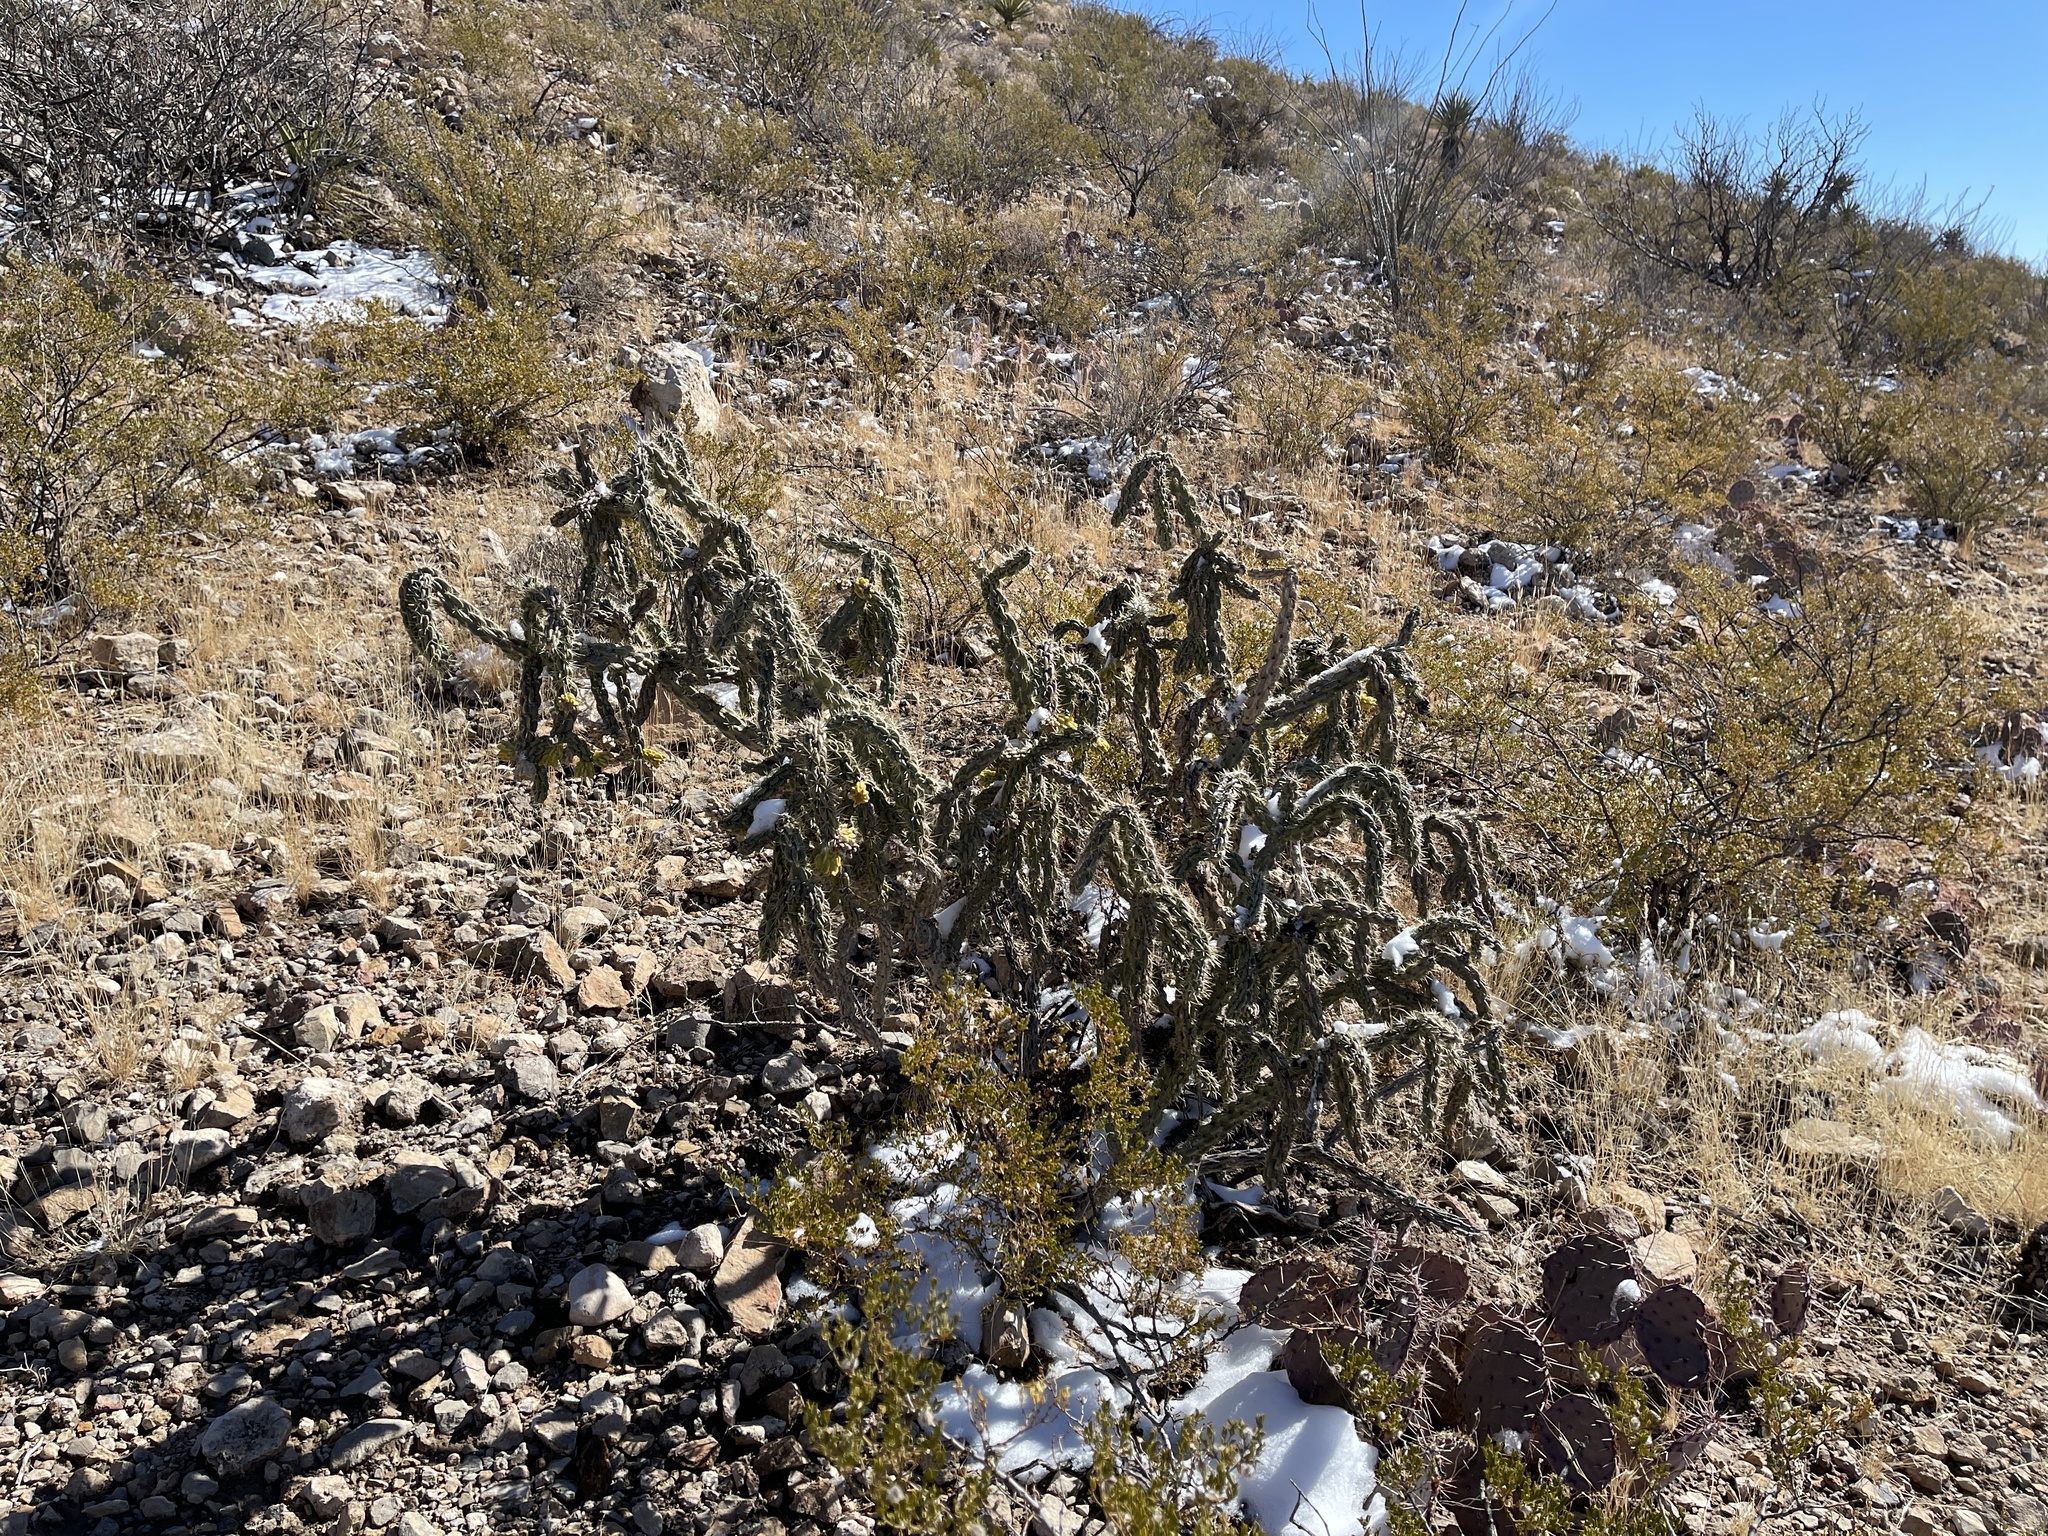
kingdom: Plantae
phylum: Tracheophyta
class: Magnoliopsida
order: Caryophyllales
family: Cactaceae
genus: Cylindropuntia
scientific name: Cylindropuntia imbricata
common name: Candelabrum cactus
